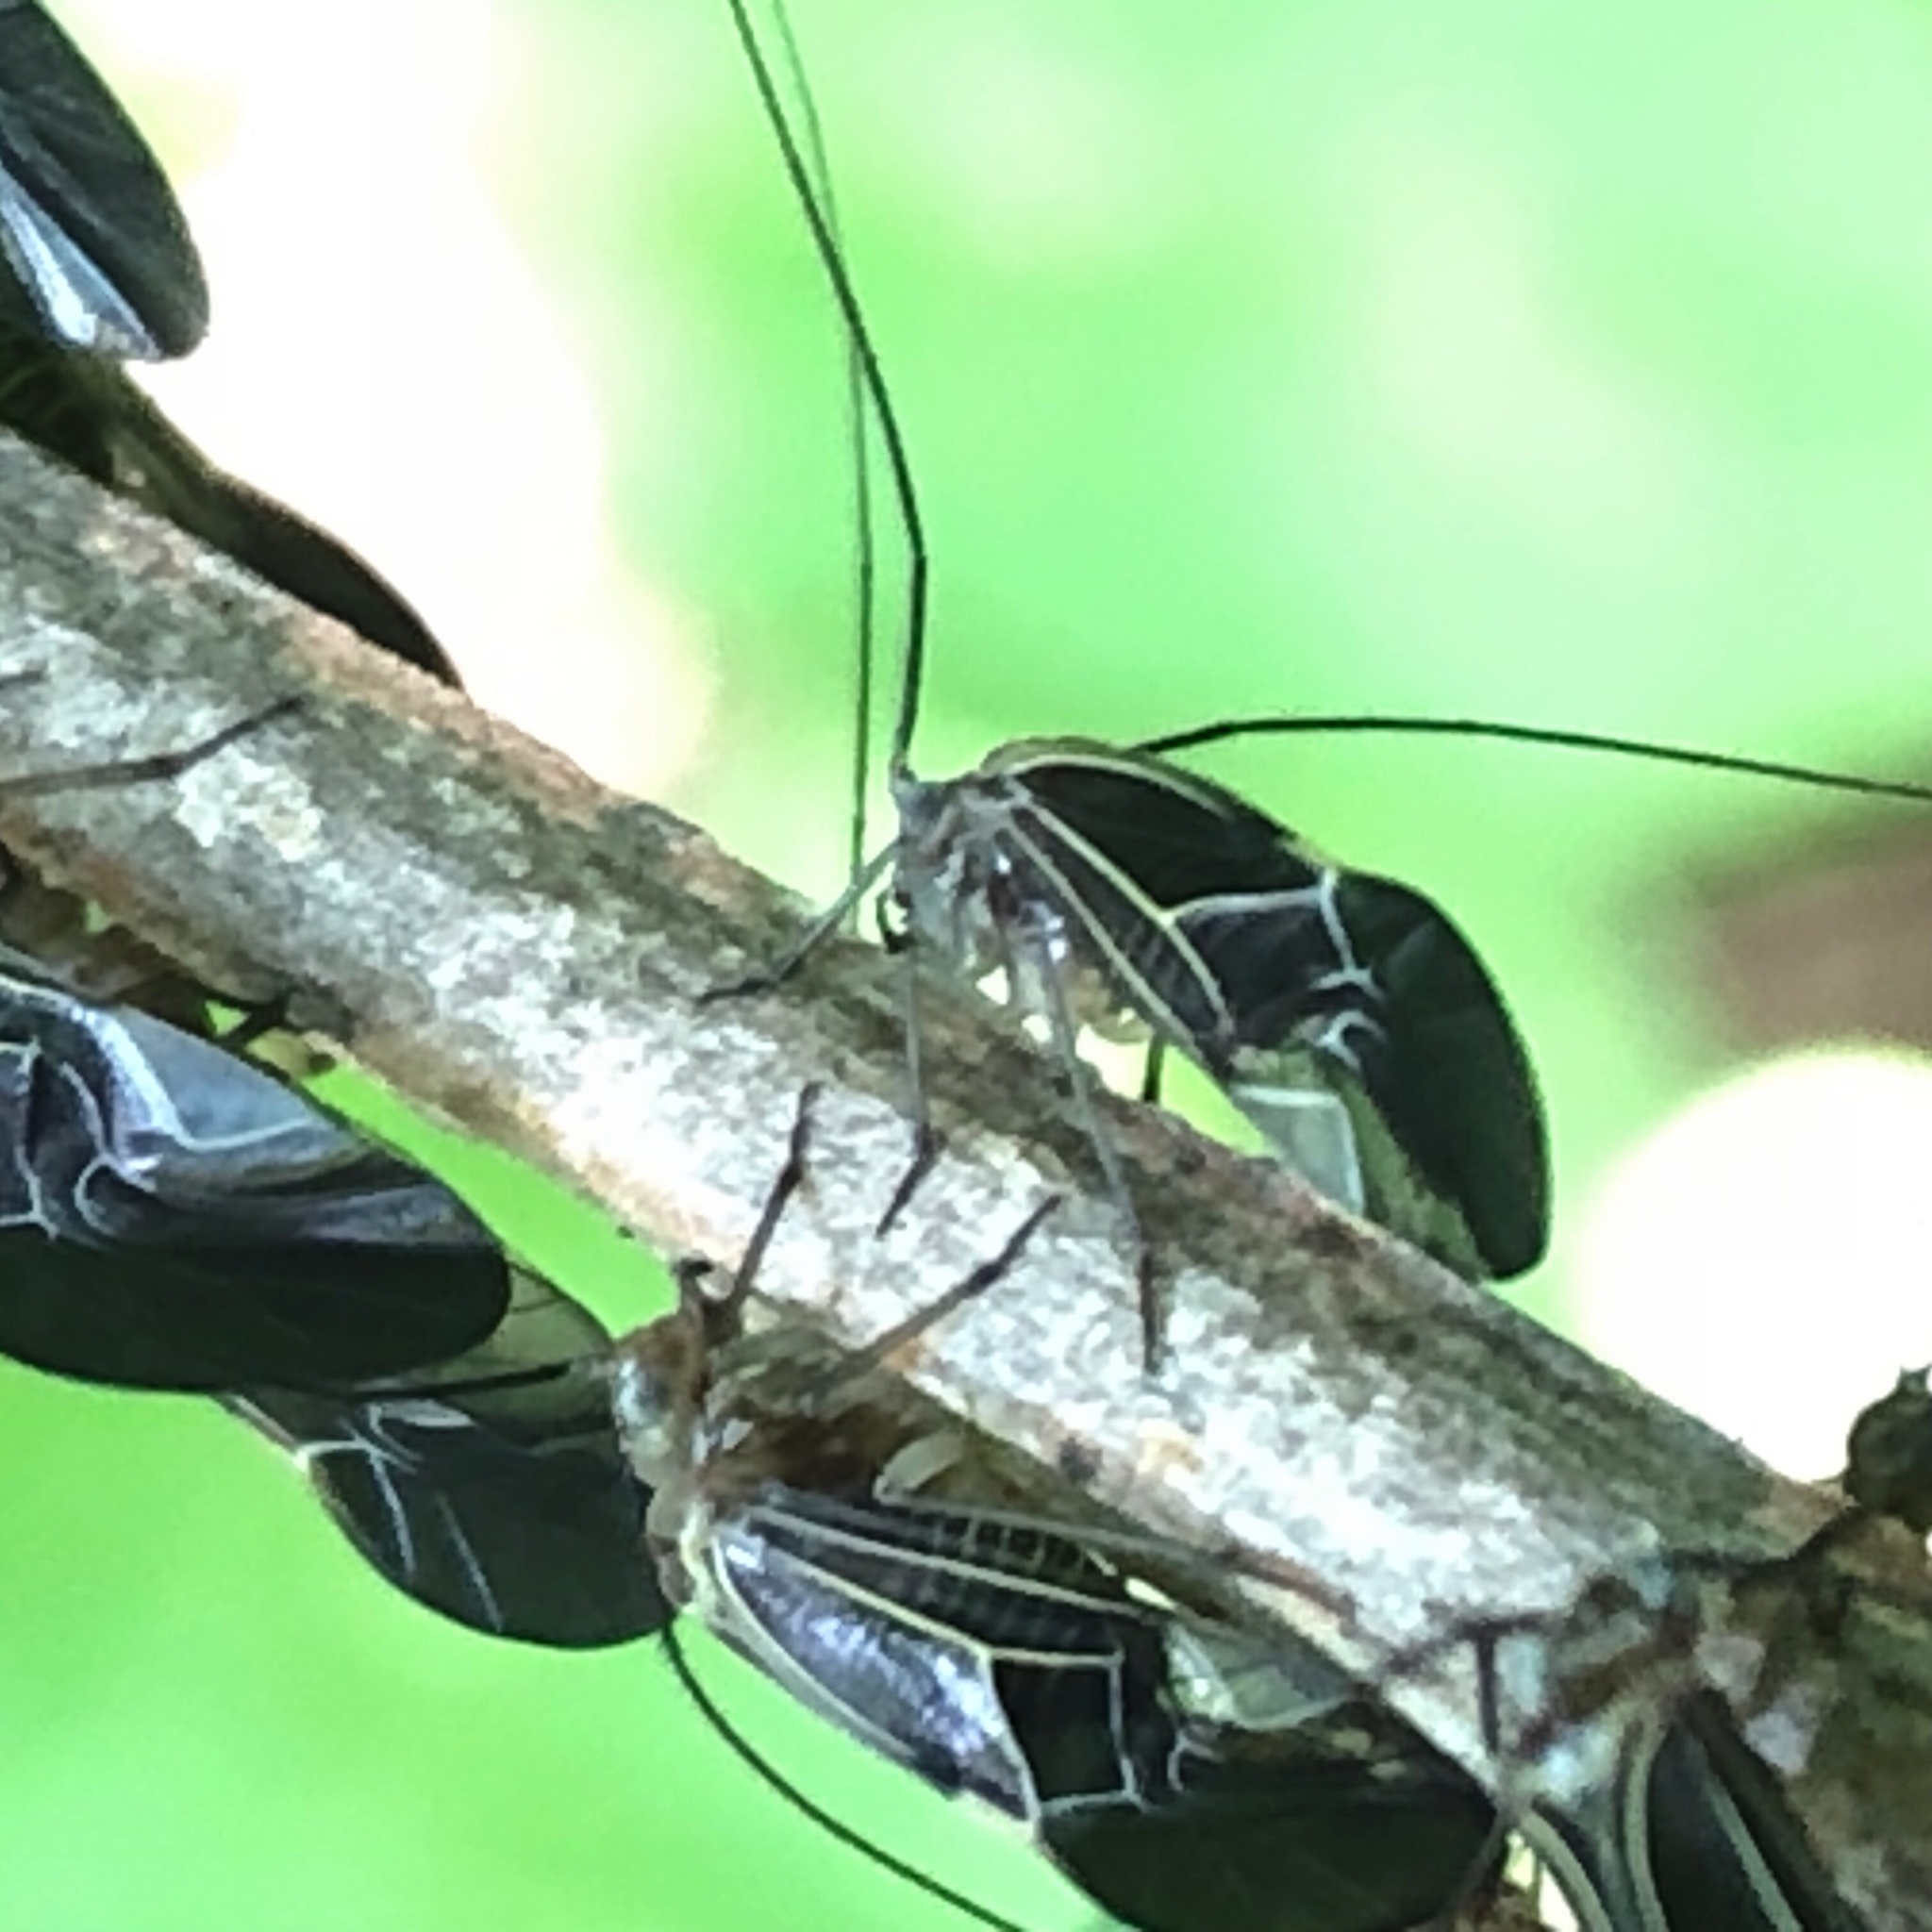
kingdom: Animalia
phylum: Arthropoda
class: Insecta
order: Psocodea
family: Psocidae
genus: Cerastipsocus
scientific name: Cerastipsocus venosus
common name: Tree cattle
